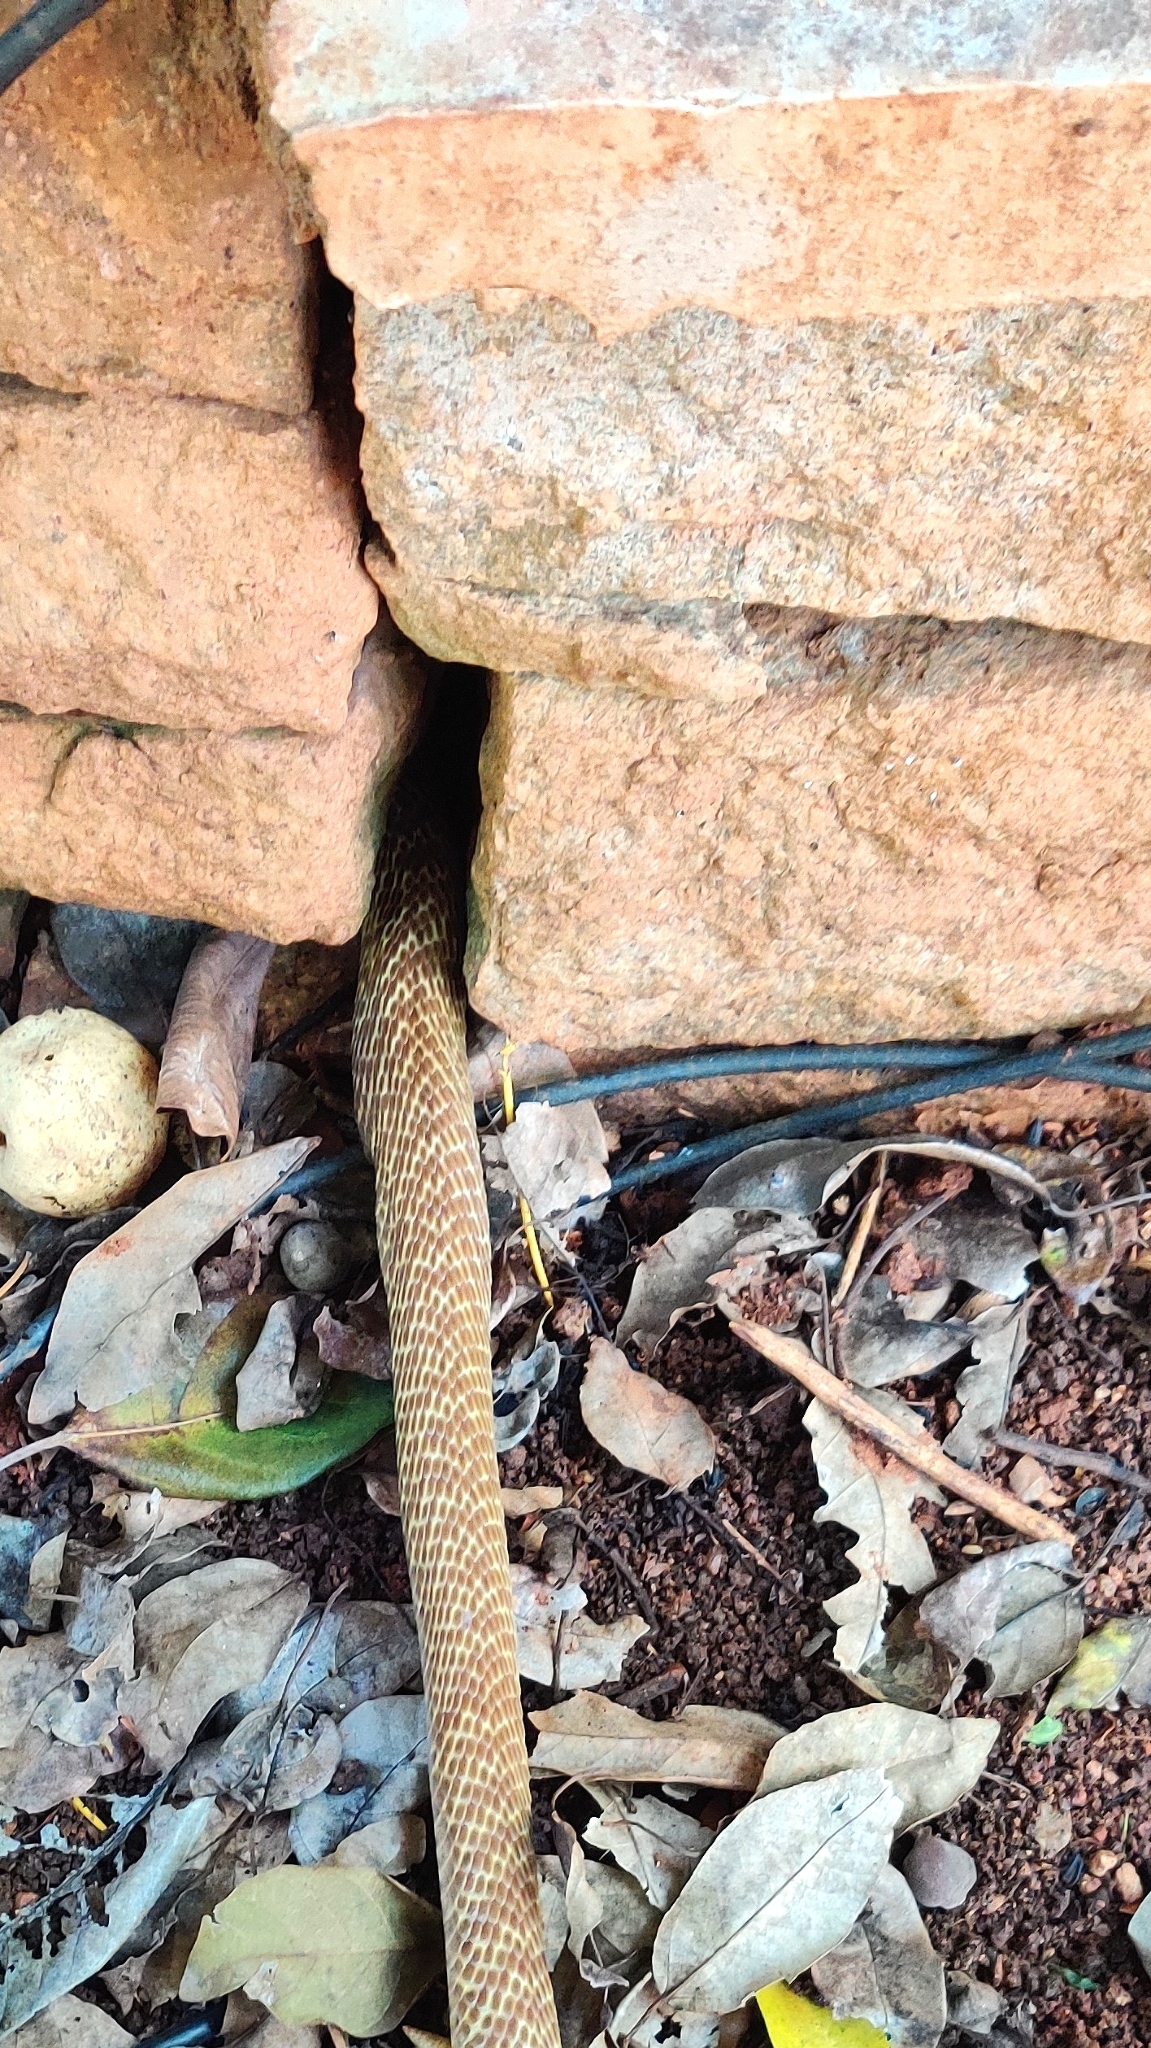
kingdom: Animalia
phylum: Chordata
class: Squamata
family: Elapidae
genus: Naja
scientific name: Naja naja
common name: Indian cobra
